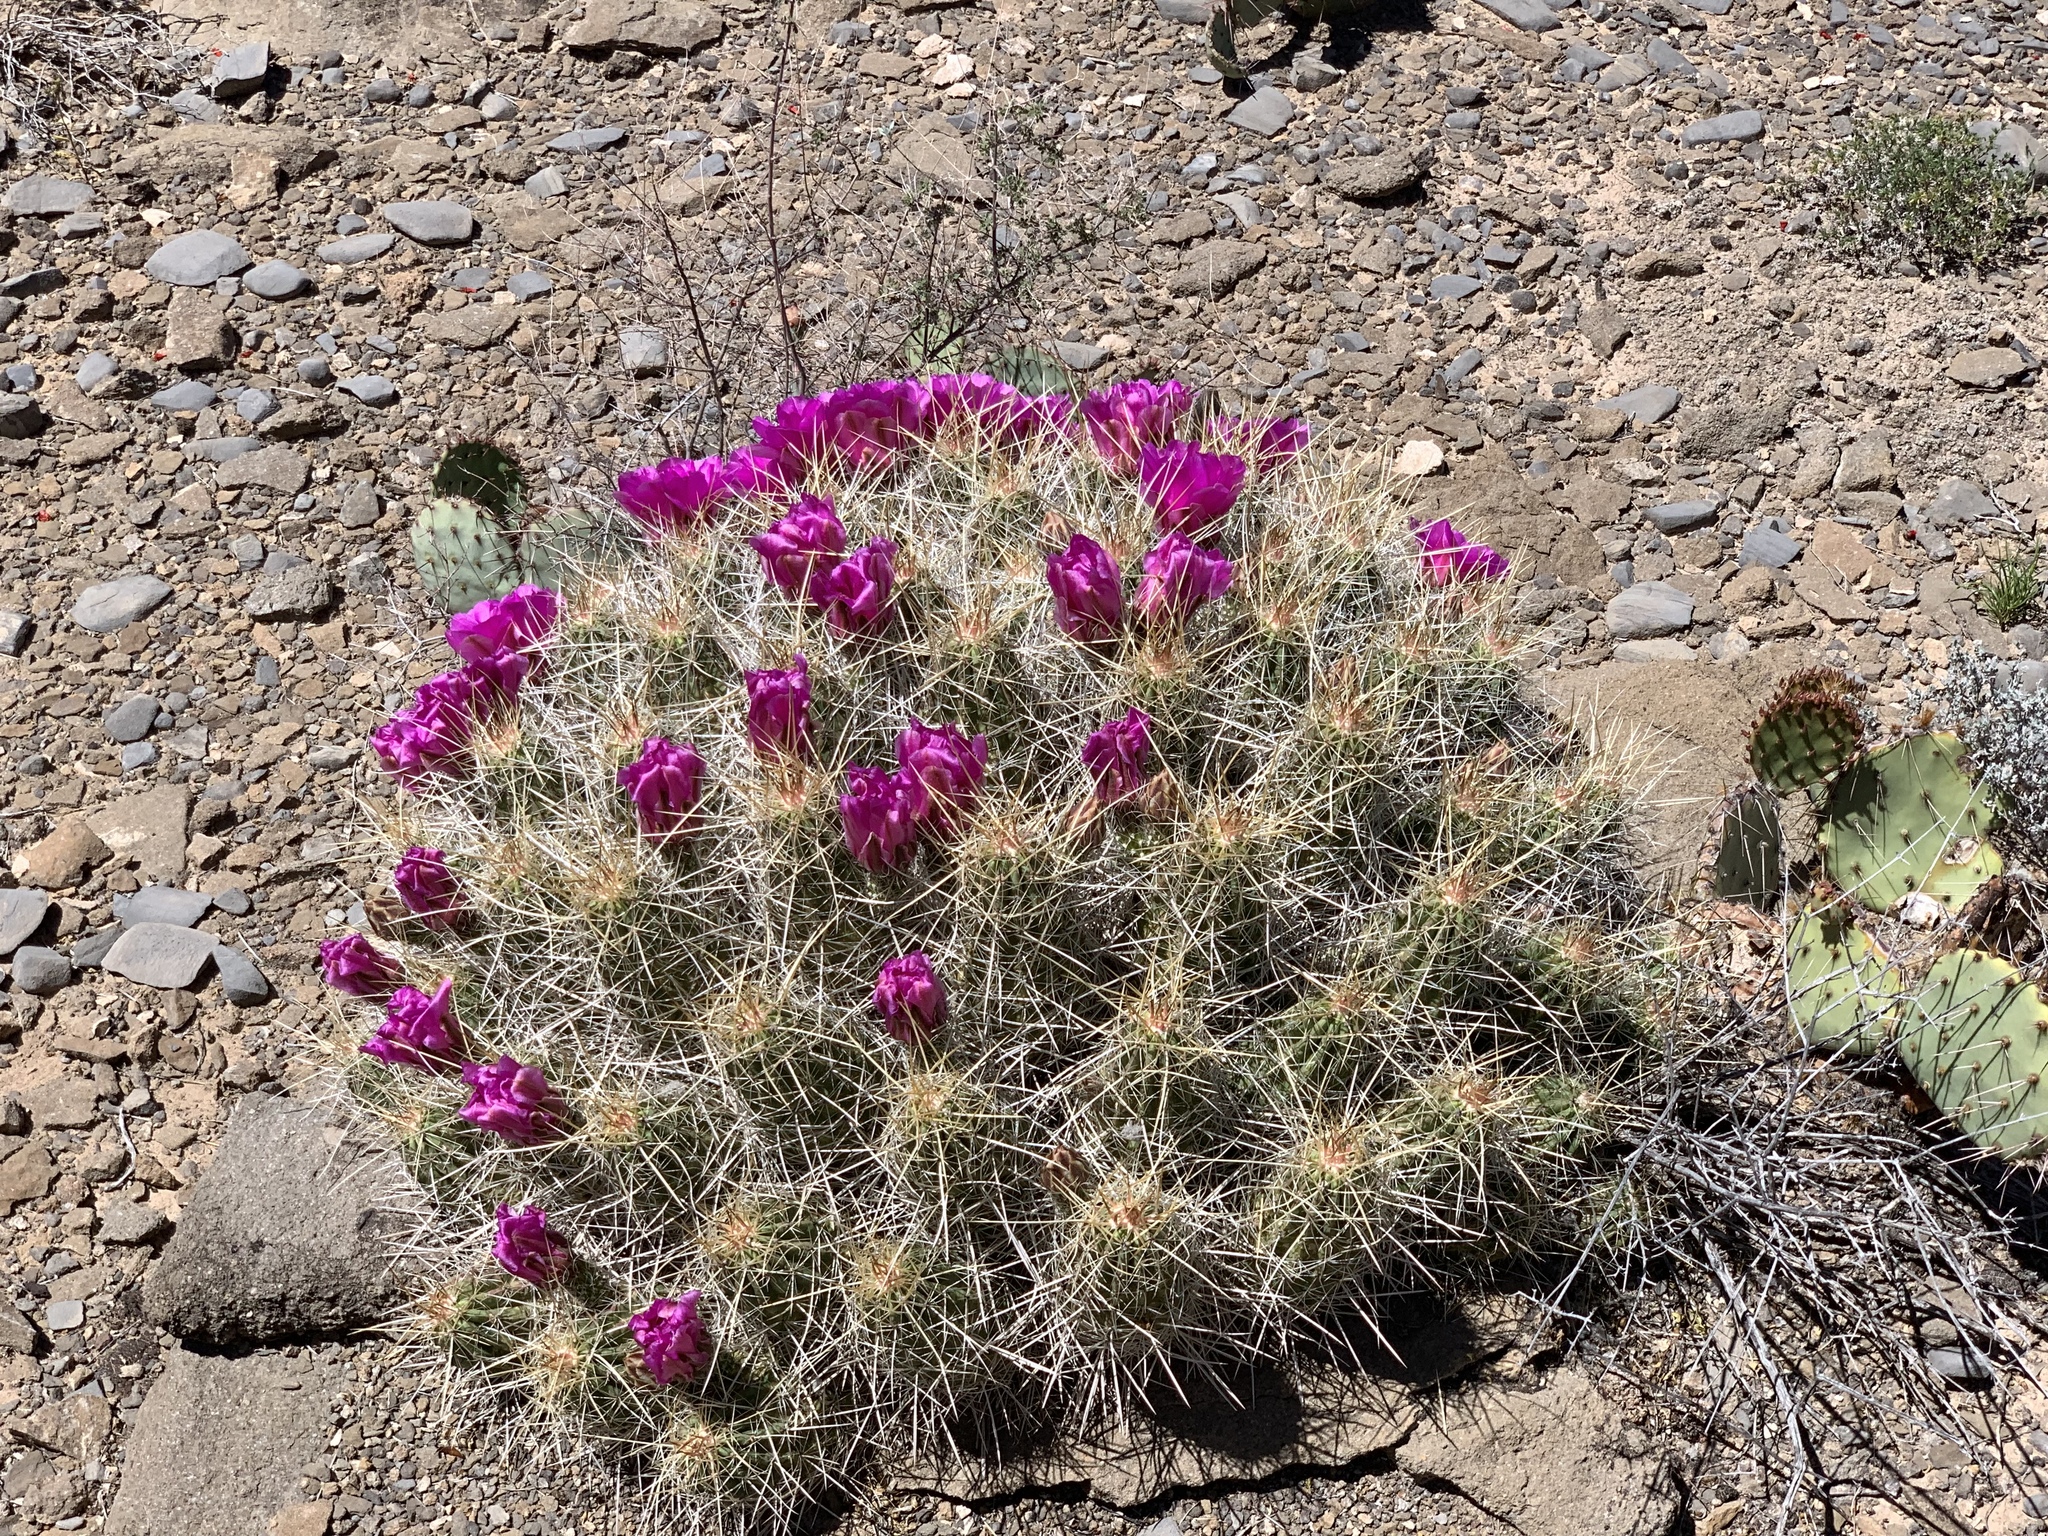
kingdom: Plantae
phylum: Tracheophyta
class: Magnoliopsida
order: Caryophyllales
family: Cactaceae
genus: Echinocereus
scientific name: Echinocereus stramineus
